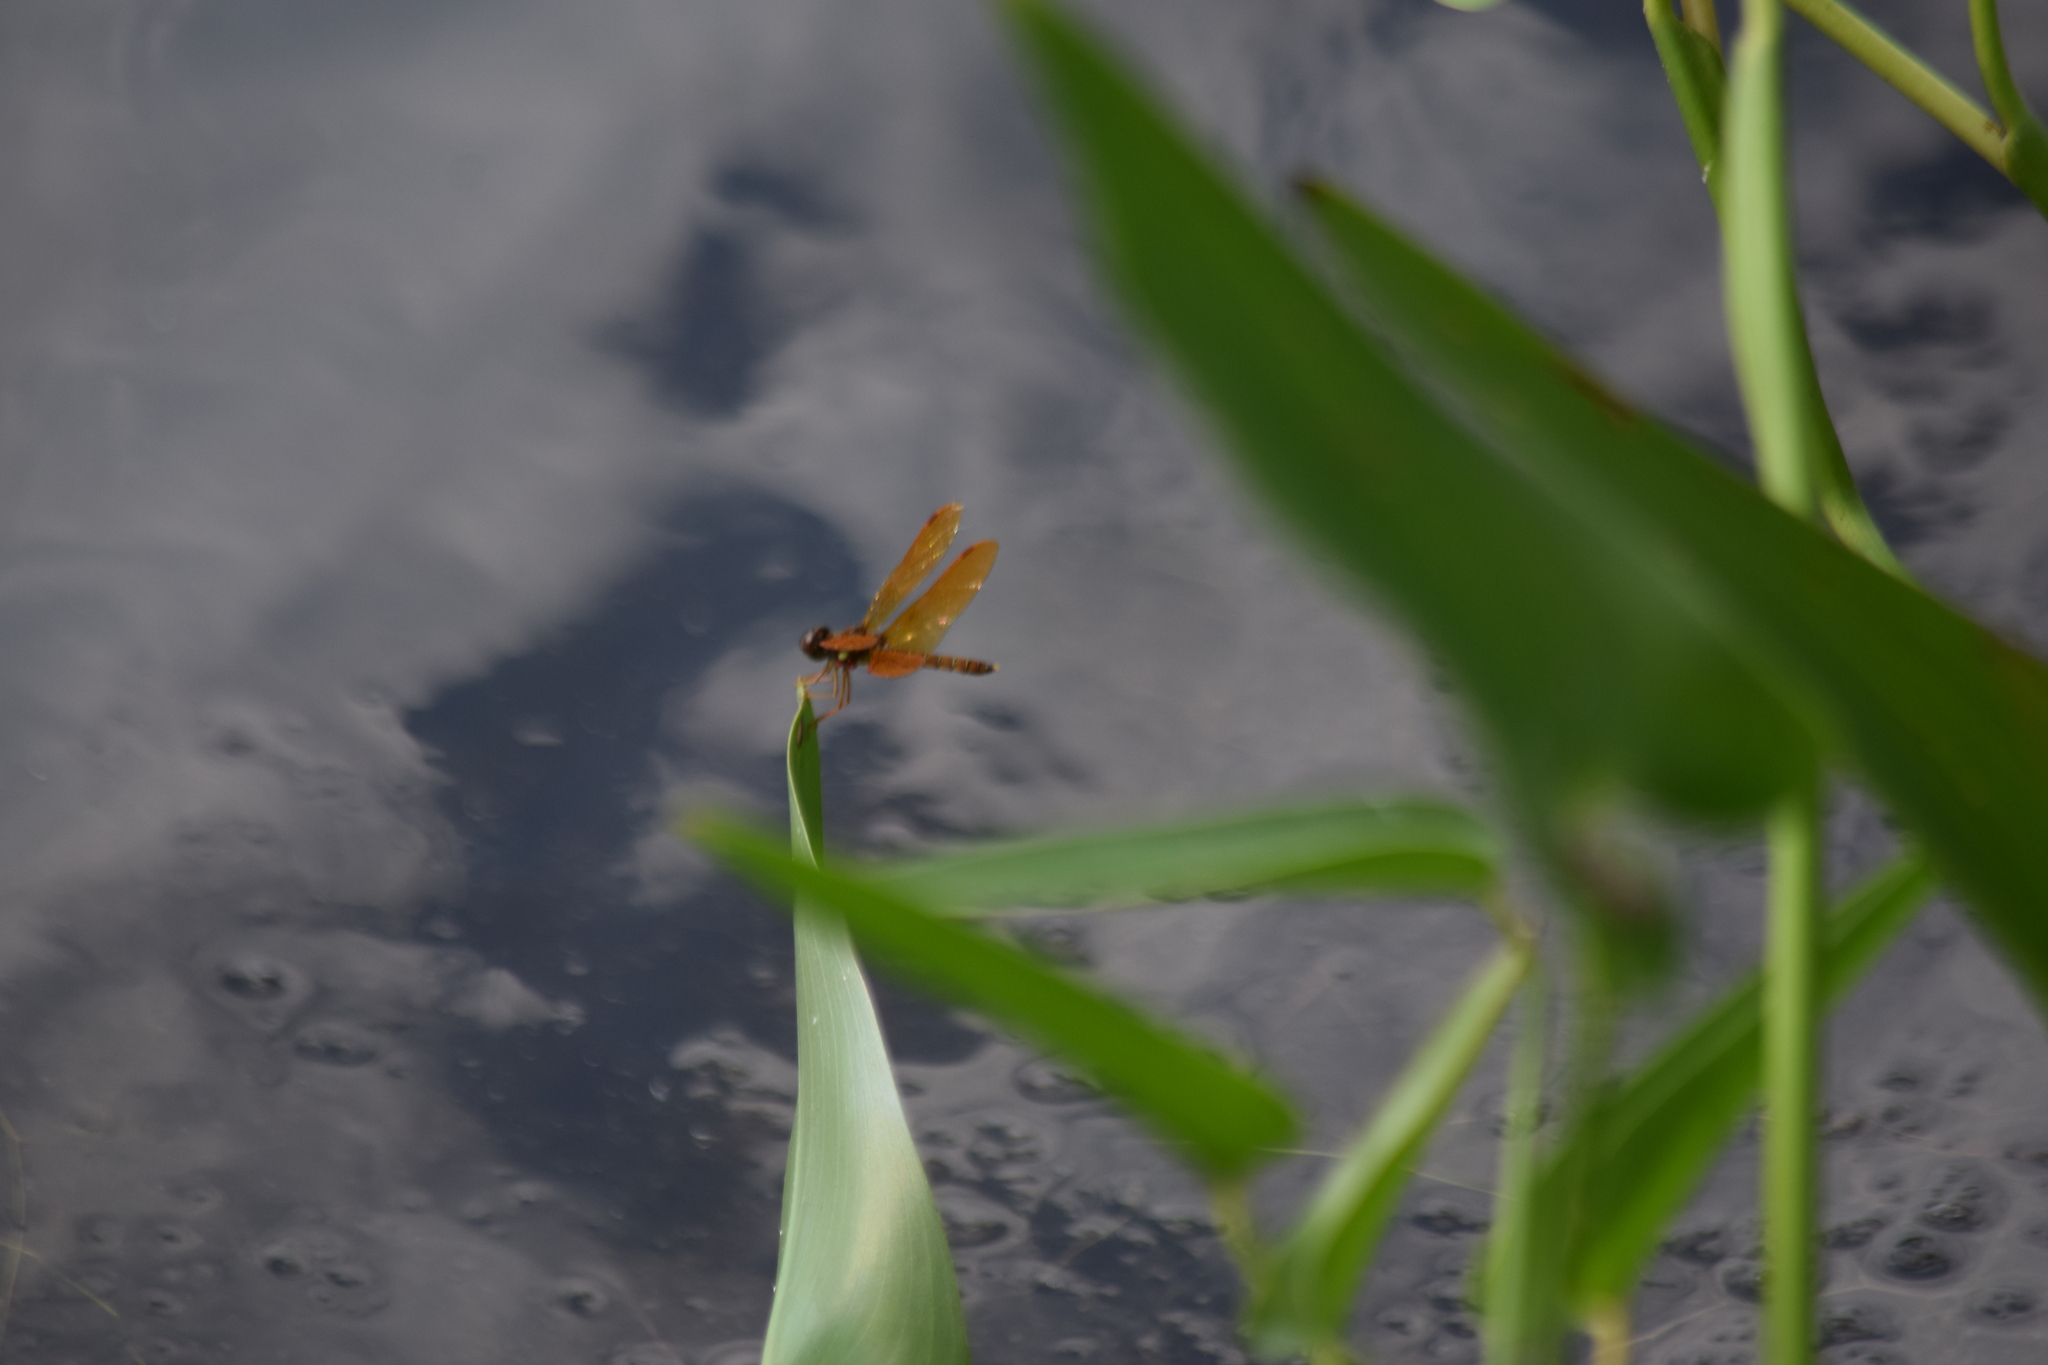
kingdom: Animalia
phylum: Arthropoda
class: Insecta
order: Odonata
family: Libellulidae
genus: Perithemis
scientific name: Perithemis tenera
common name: Eastern amberwing
